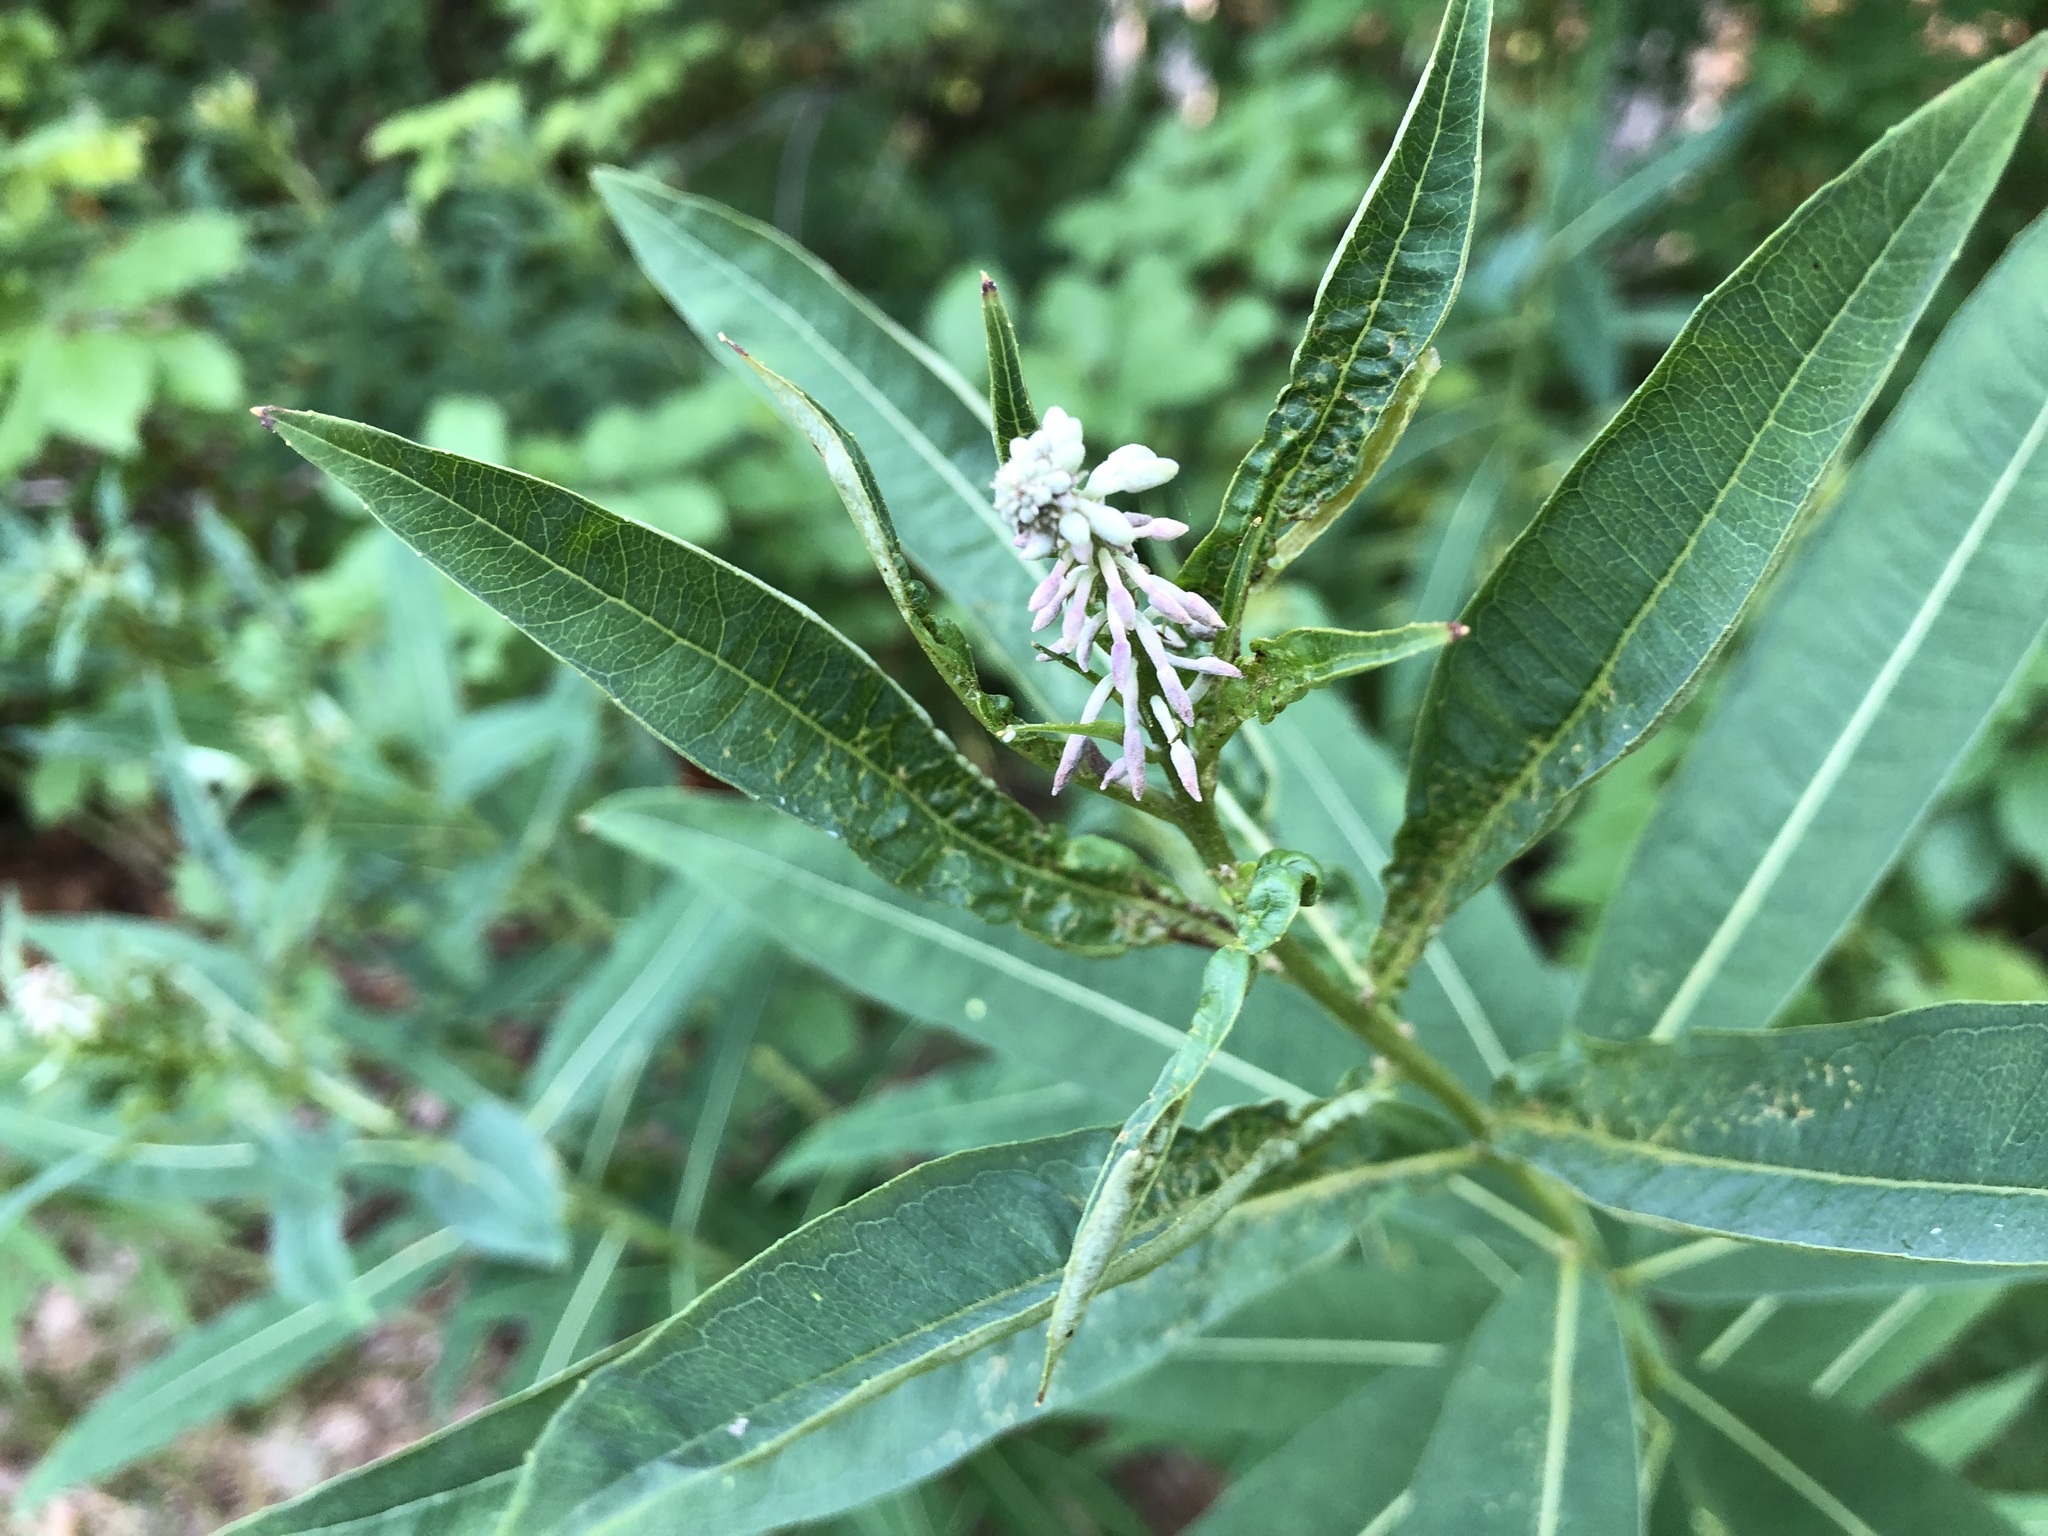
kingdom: Plantae
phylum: Tracheophyta
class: Magnoliopsida
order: Myrtales
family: Onagraceae
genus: Chamaenerion
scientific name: Chamaenerion angustifolium
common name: Fireweed
